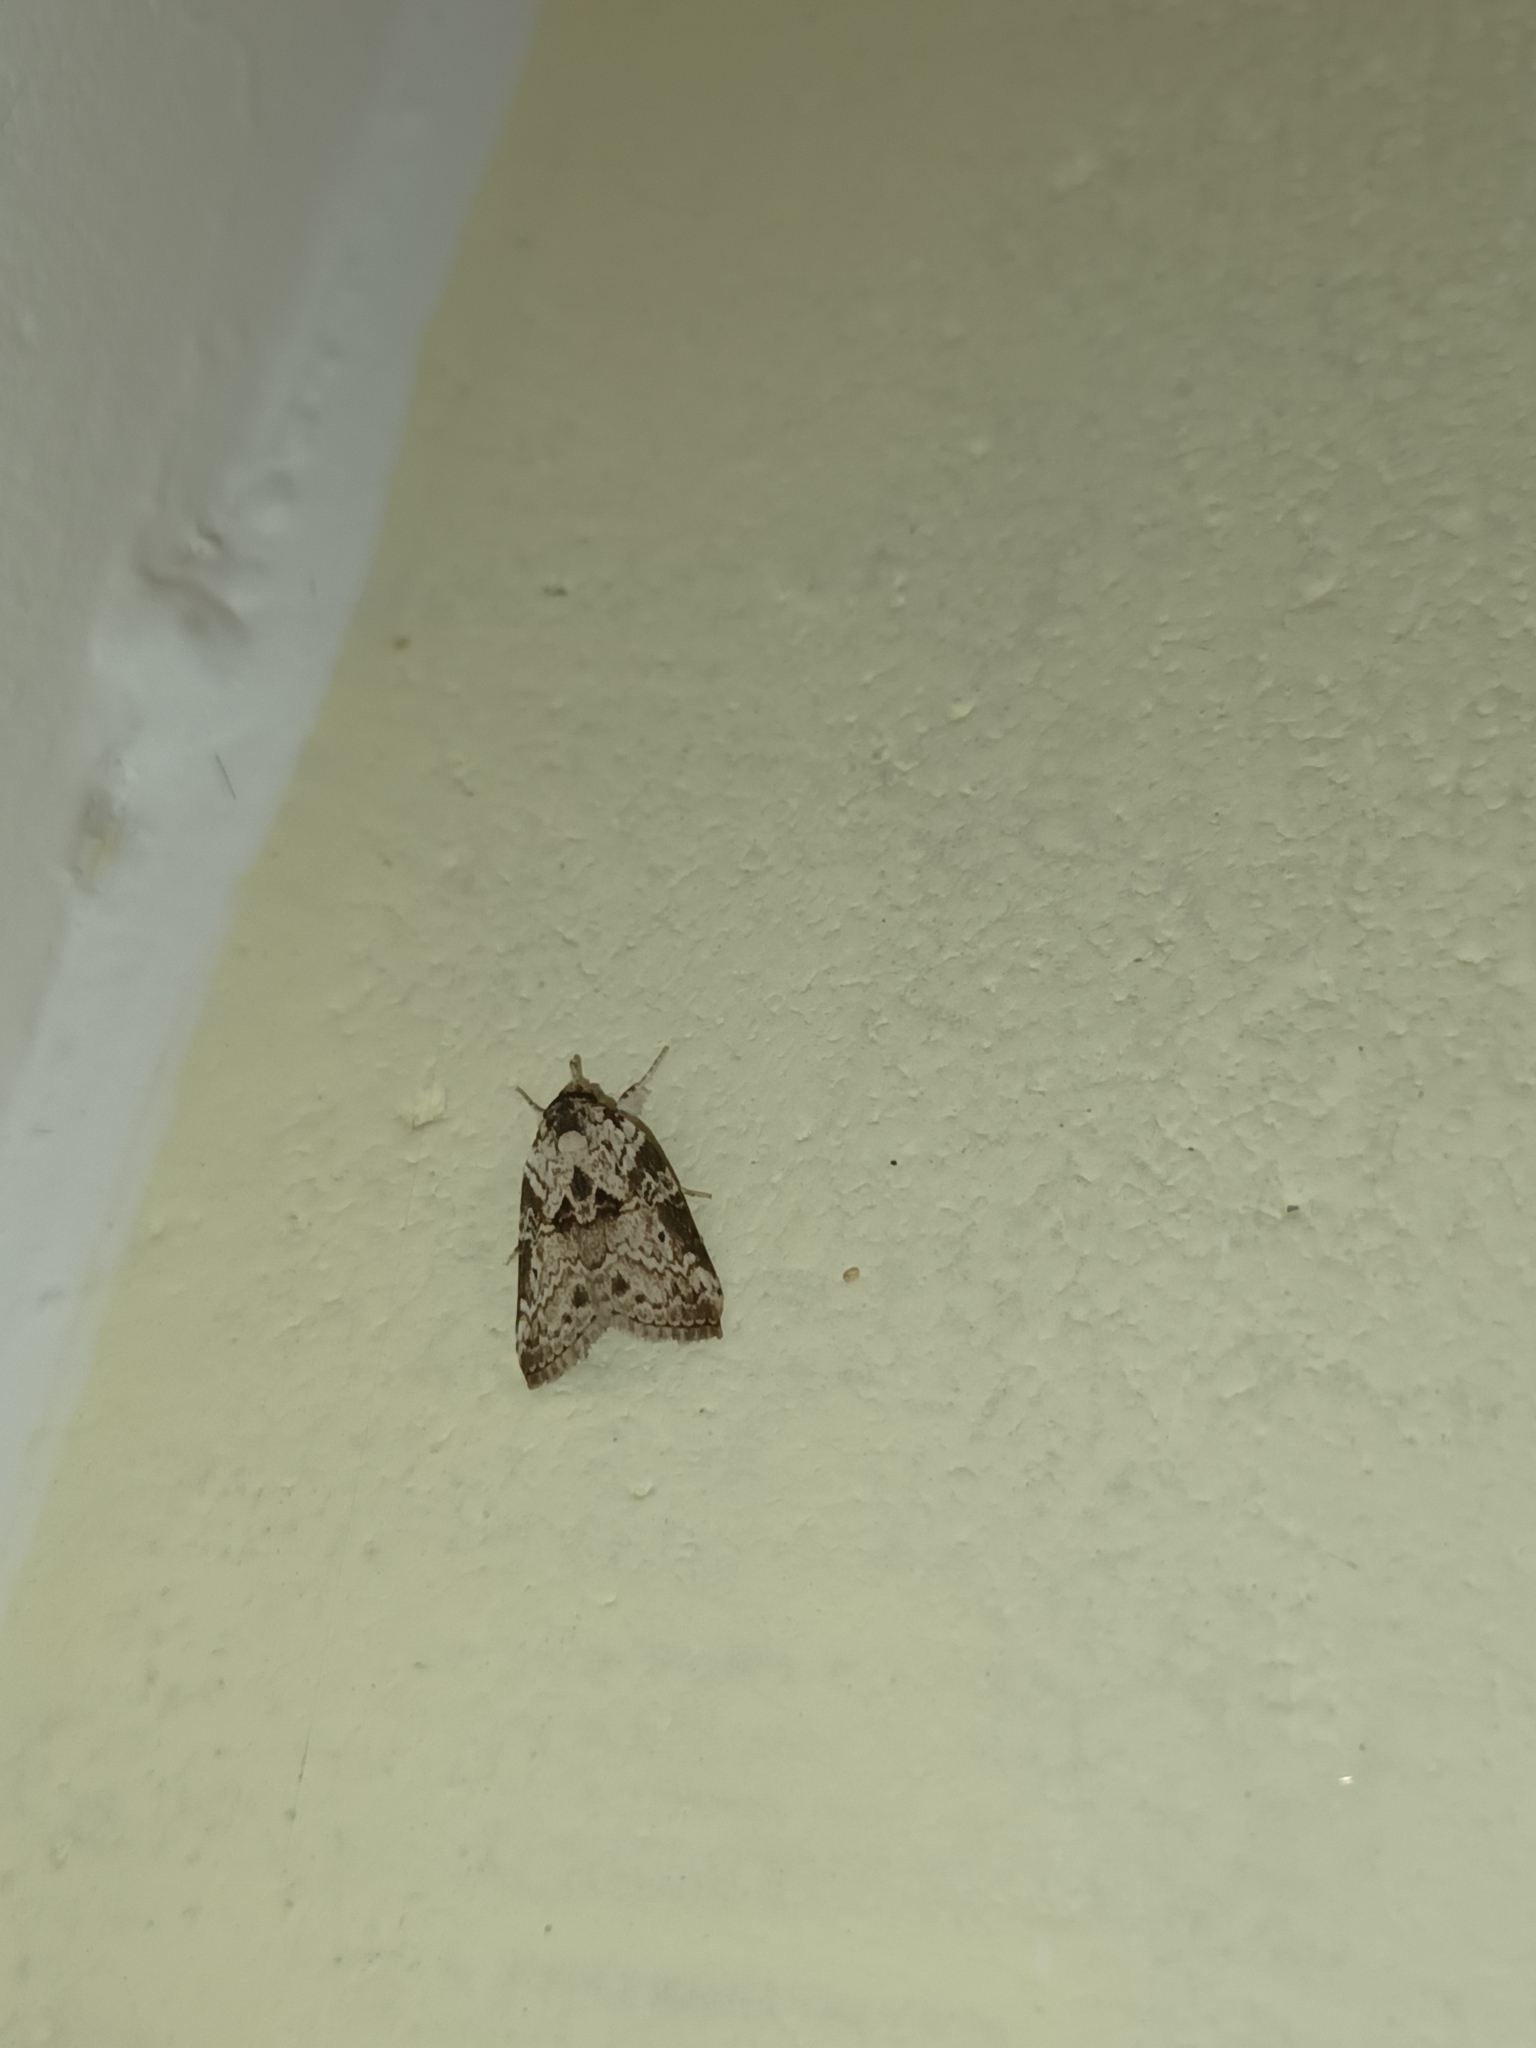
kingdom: Animalia
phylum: Arthropoda
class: Insecta
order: Lepidoptera
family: Nolidae
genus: Nycteola
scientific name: Nycteola indicatana
